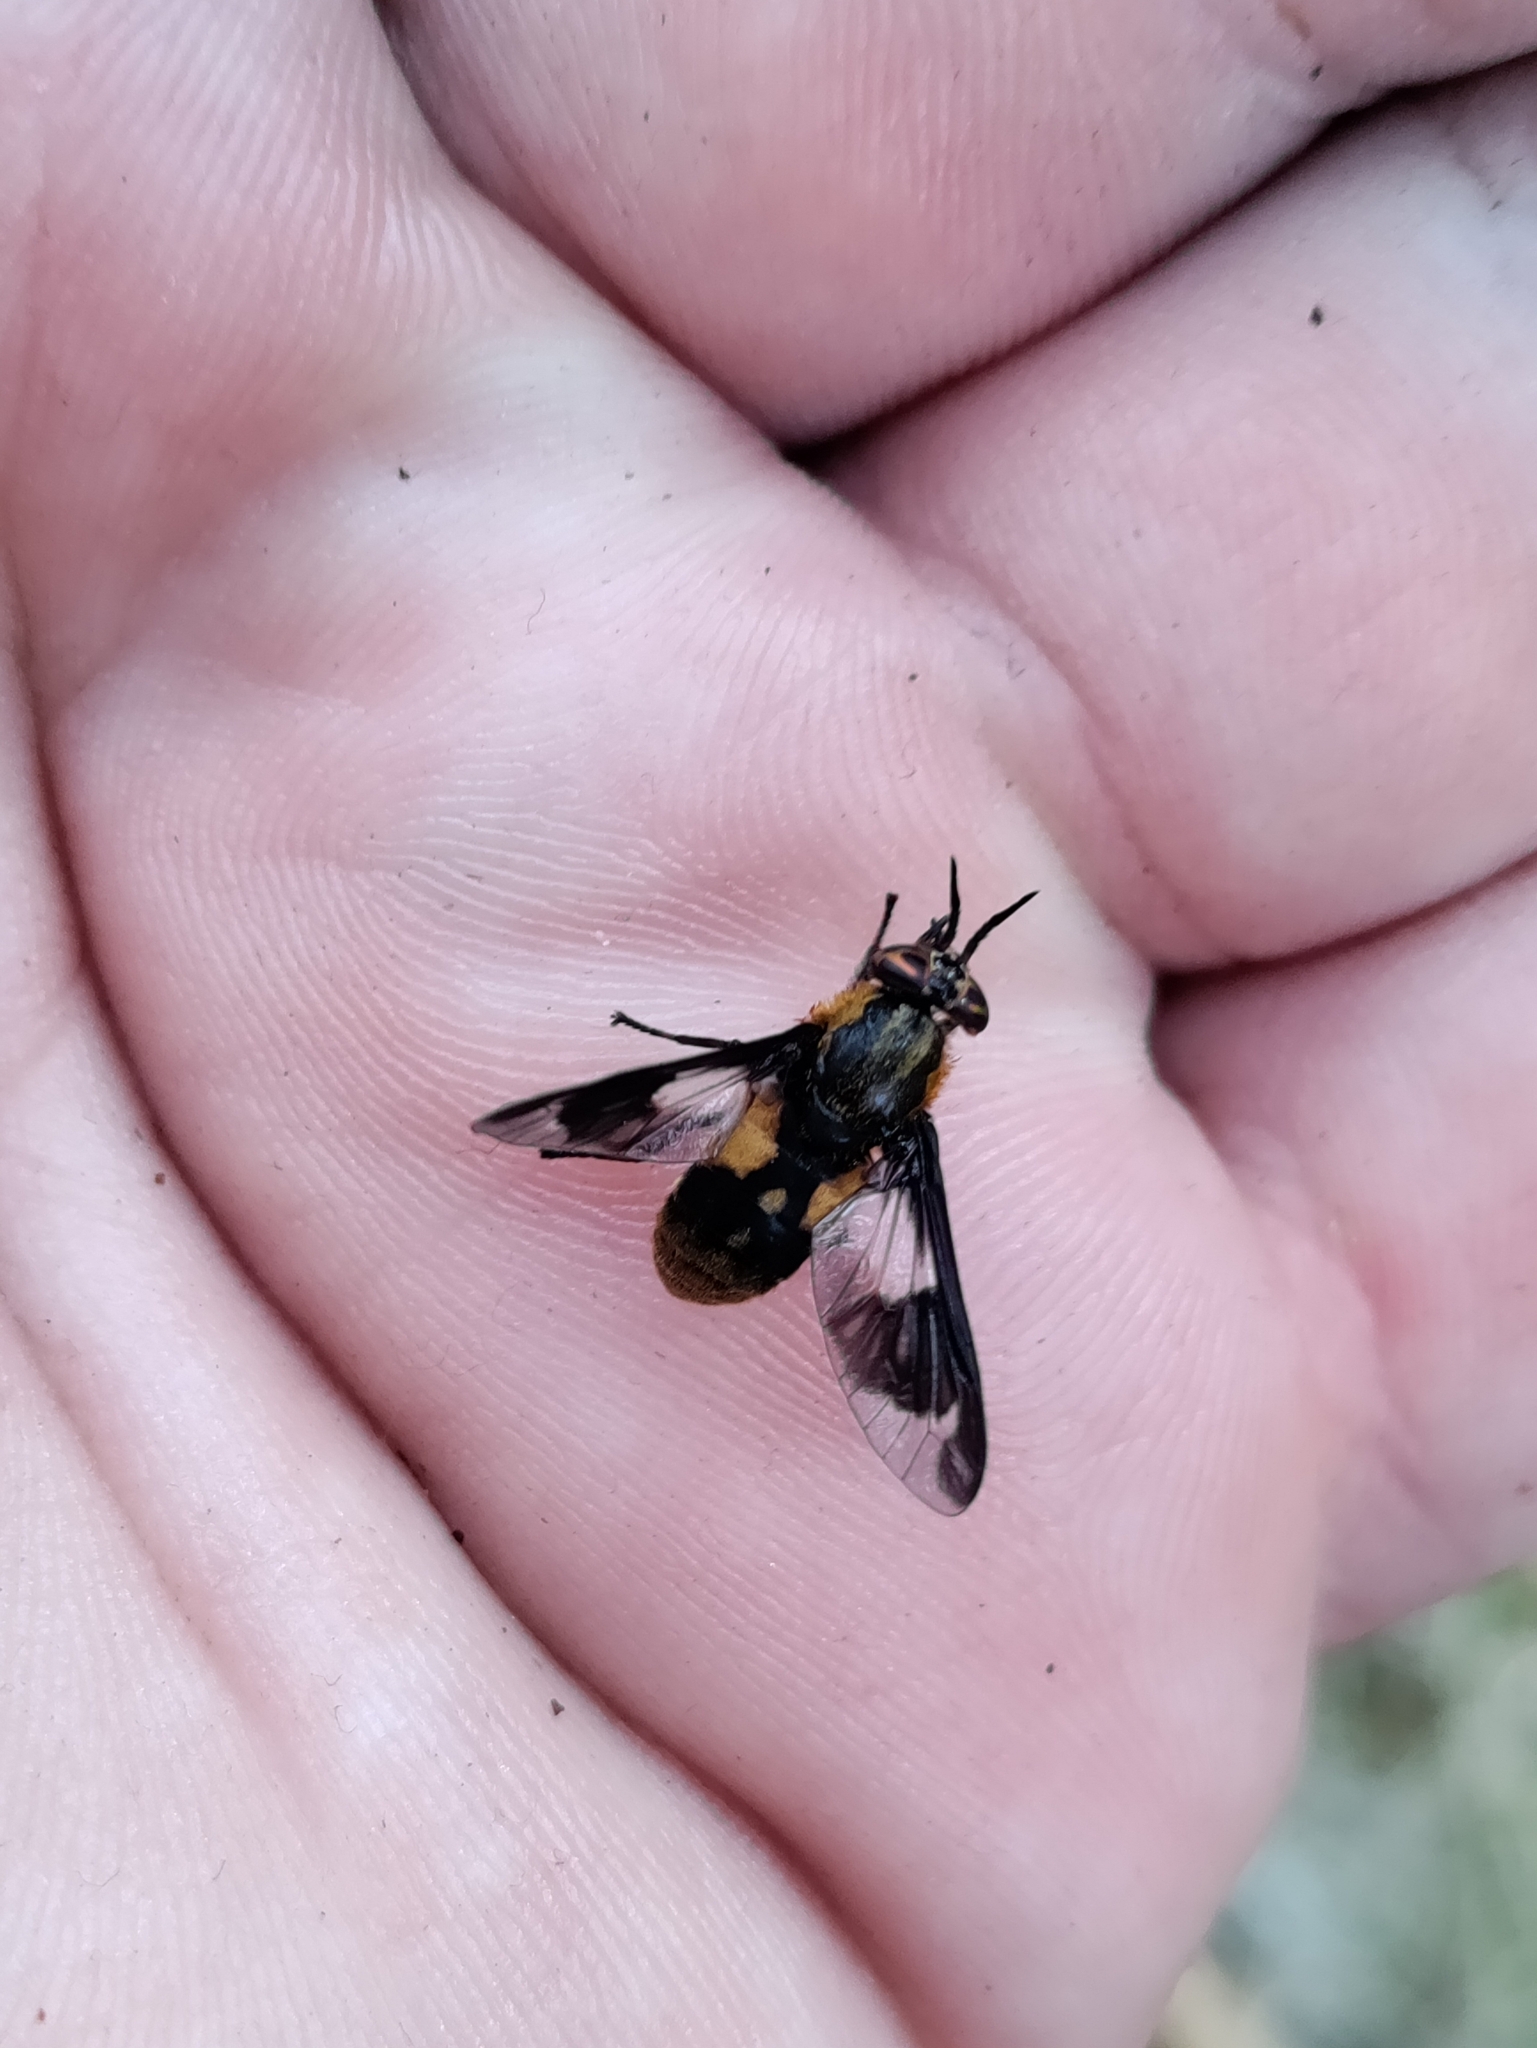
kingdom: Animalia
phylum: Arthropoda
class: Insecta
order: Diptera
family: Tabanidae
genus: Chrysops
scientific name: Chrysops caecutiens
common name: Splayed deerfly
